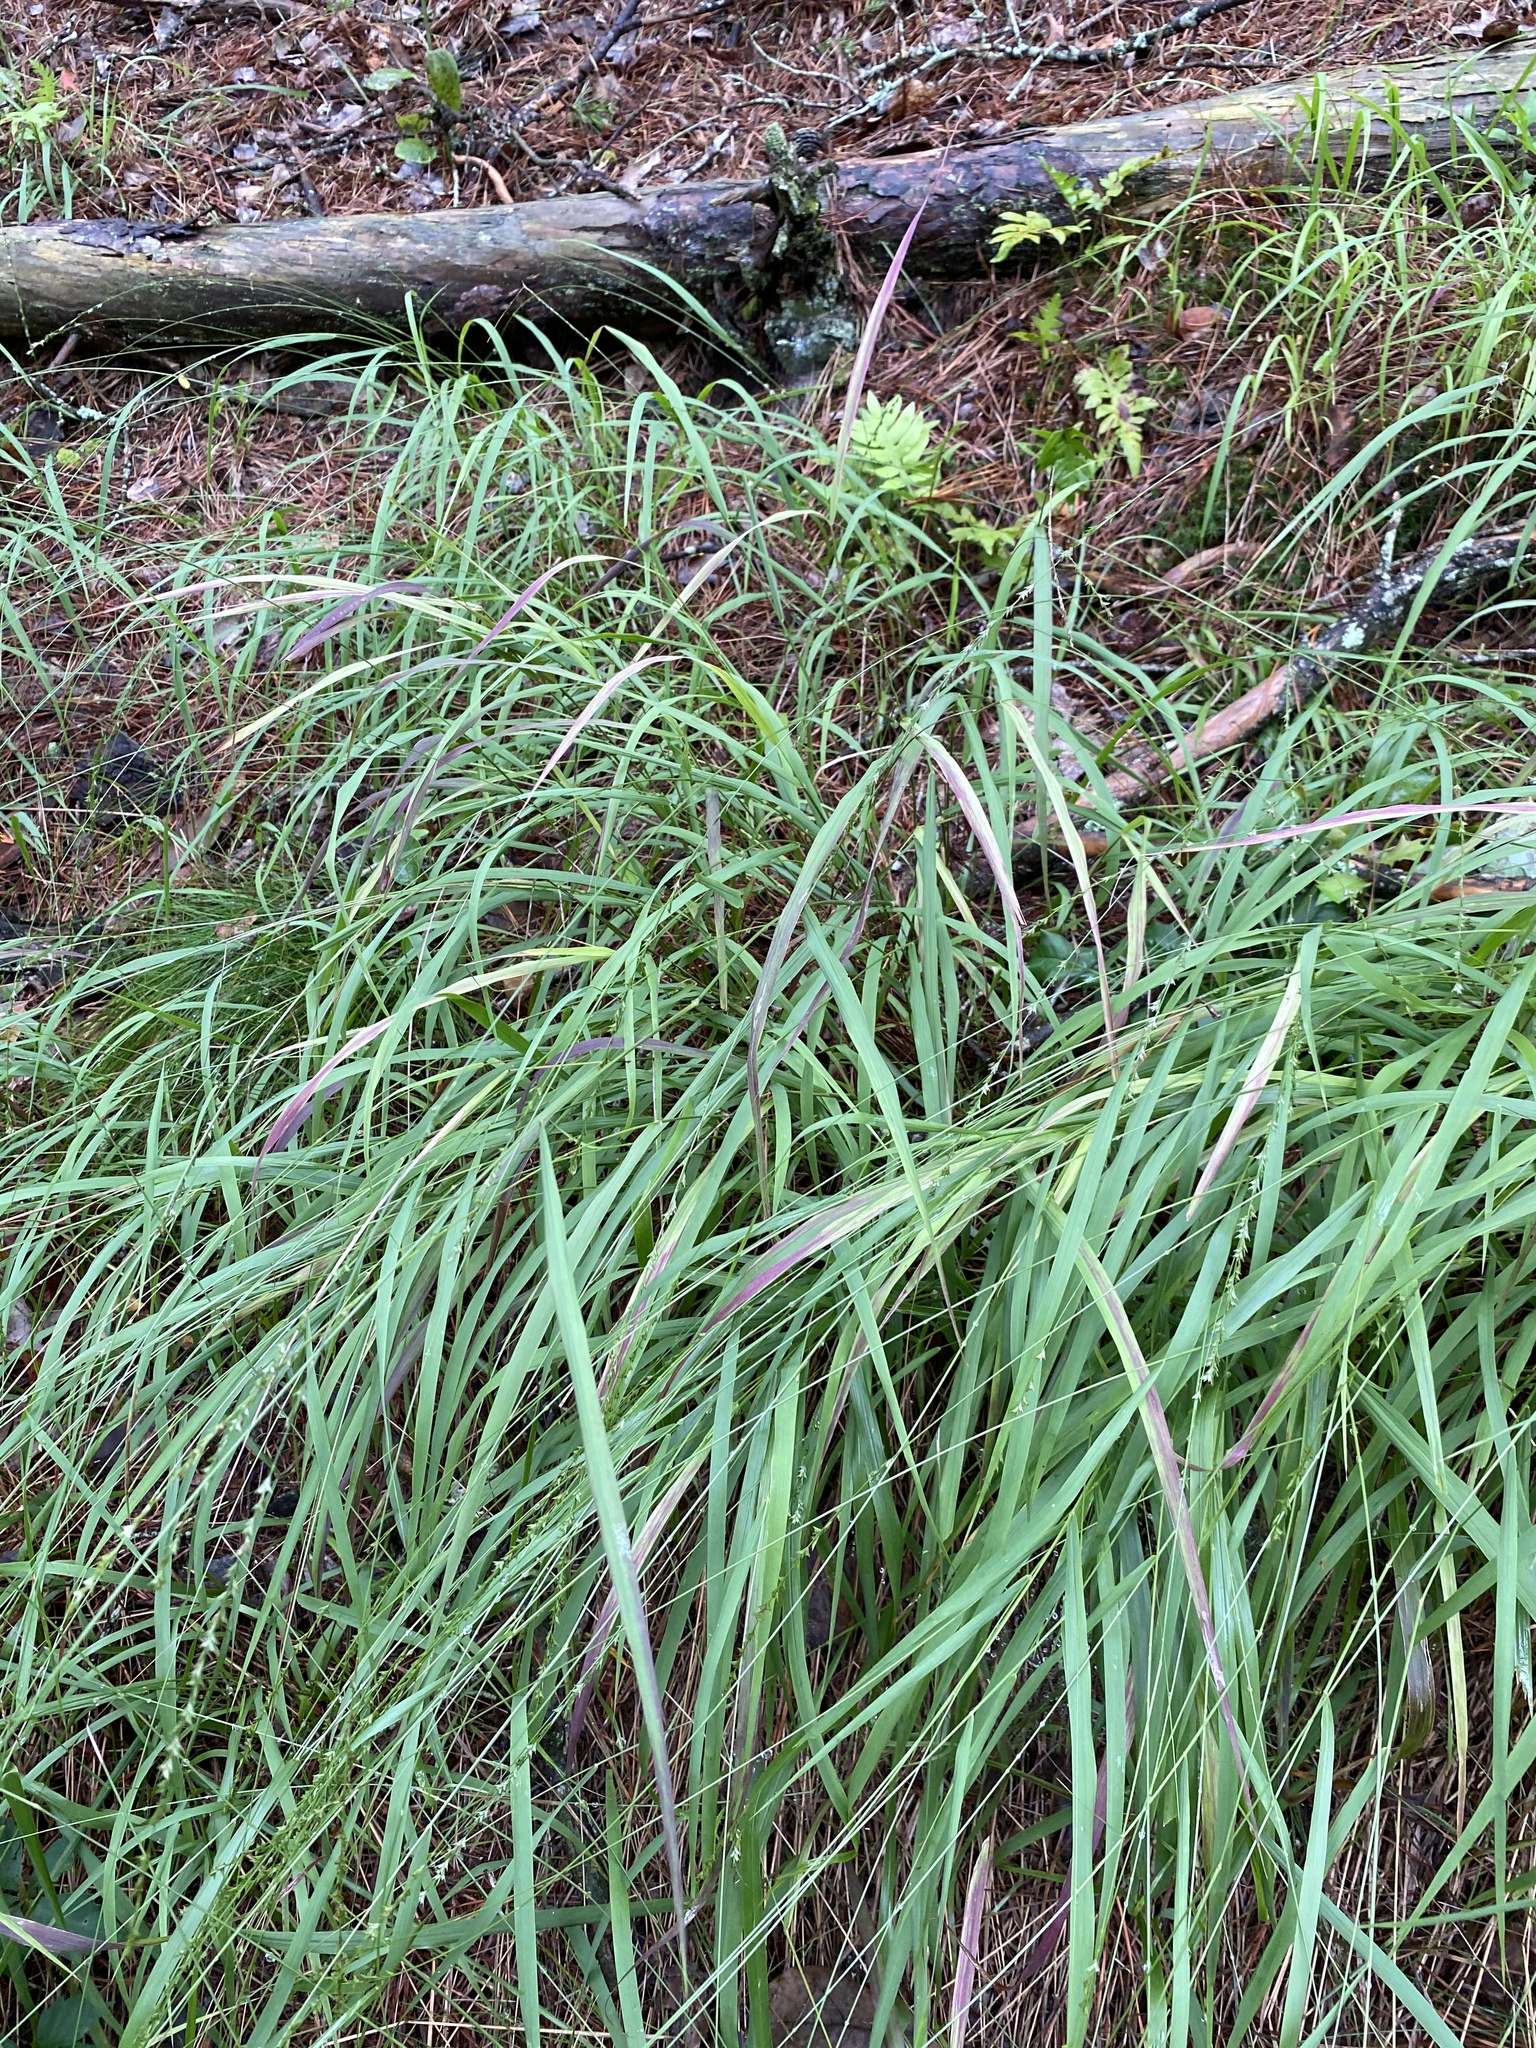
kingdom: Plantae
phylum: Tracheophyta
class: Liliopsida
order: Poales
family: Poaceae
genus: Chasmanthium
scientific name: Chasmanthium laxum
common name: Slender chasmanthium
